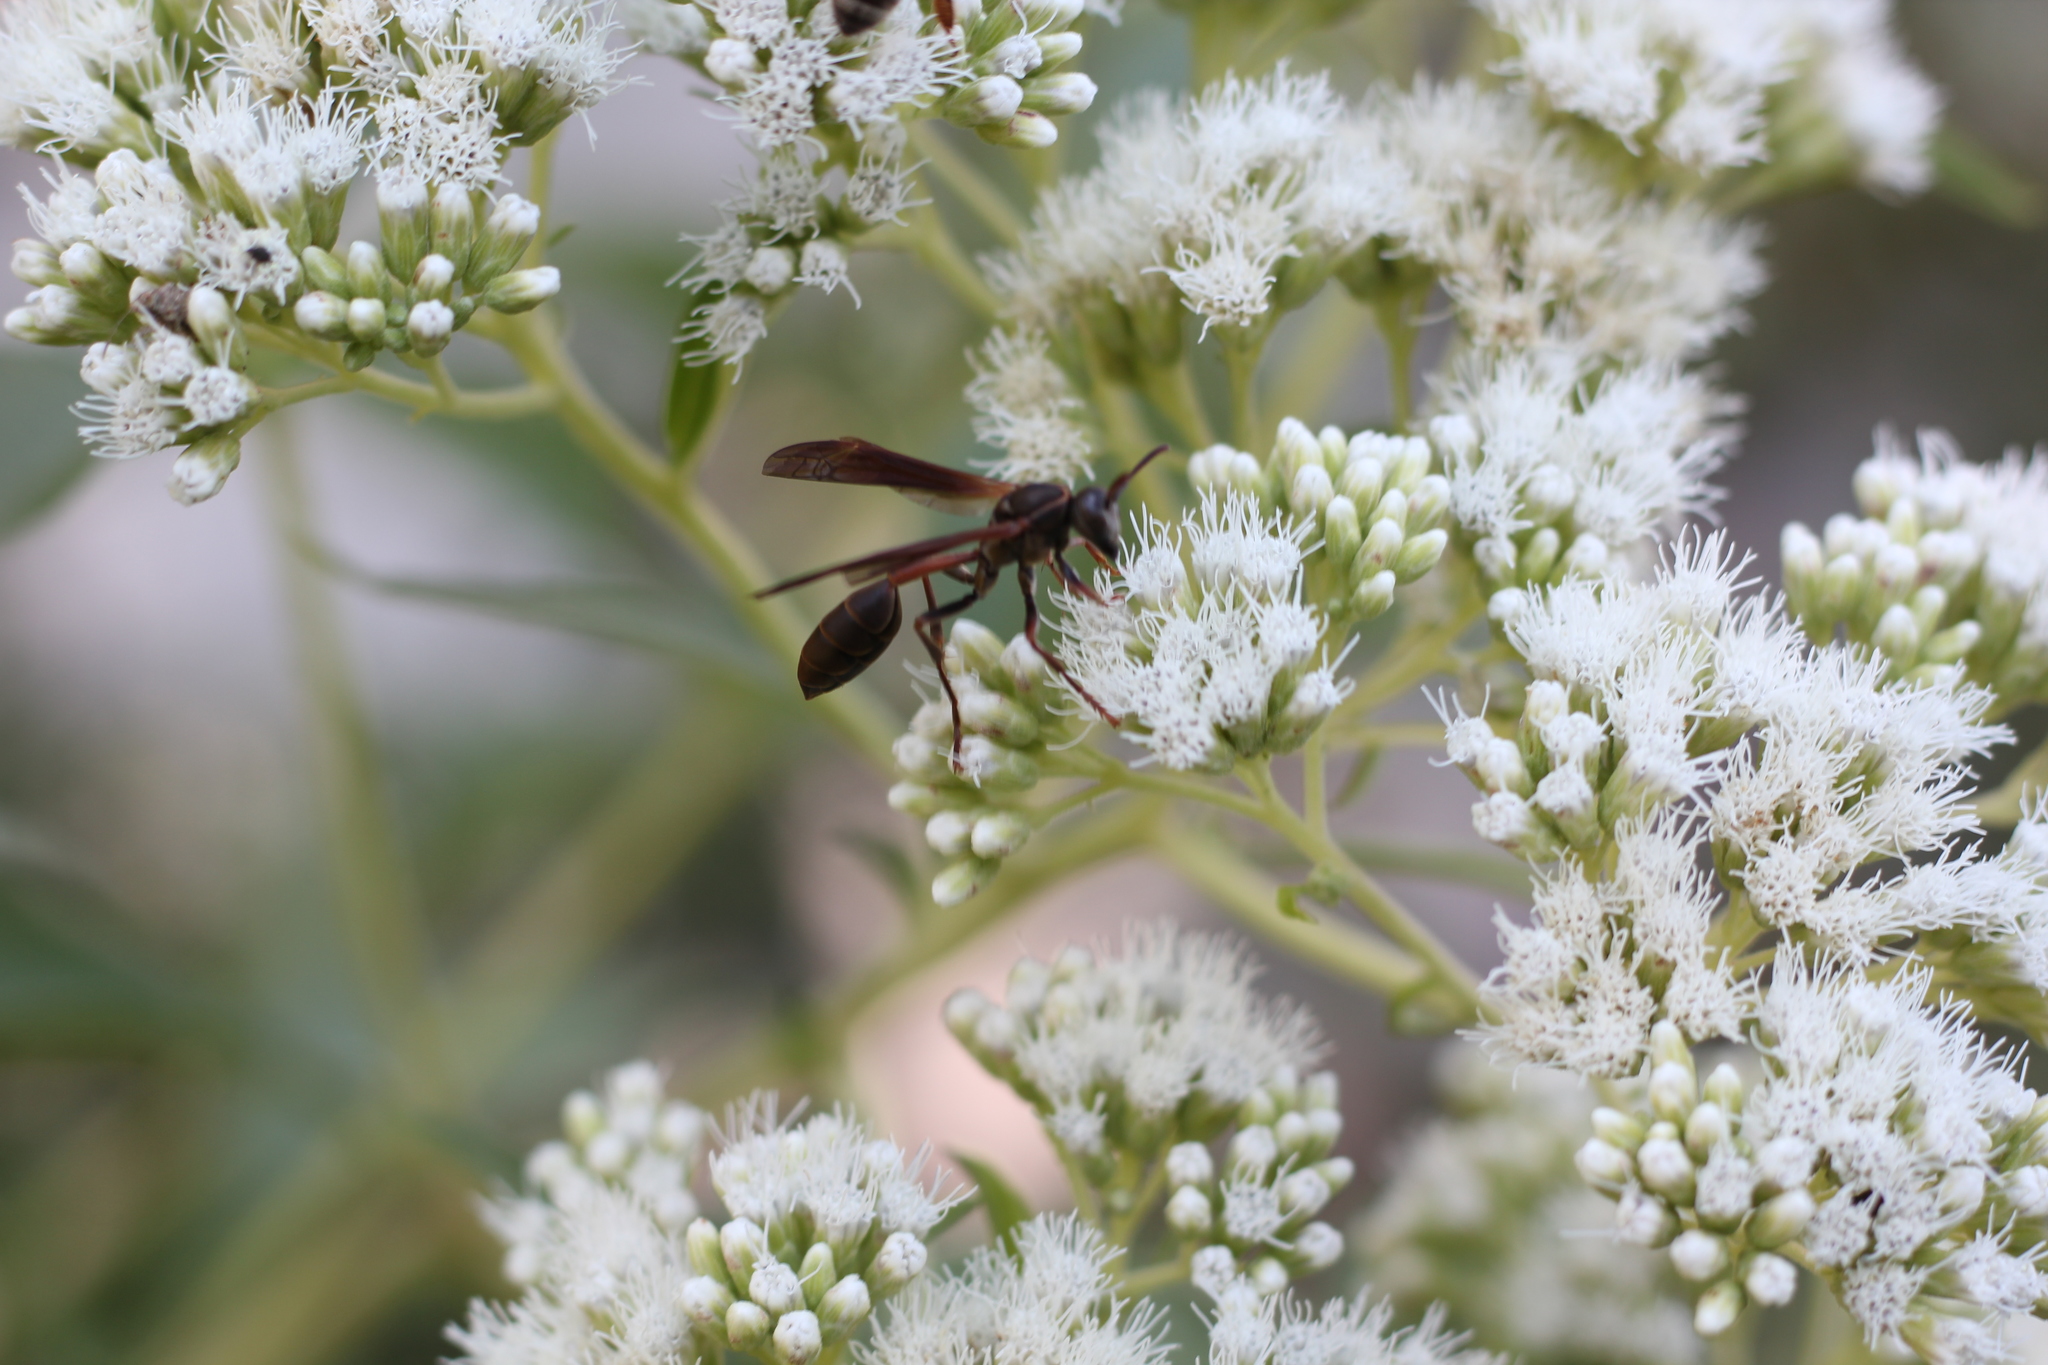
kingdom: Animalia
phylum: Arthropoda
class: Insecta
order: Hymenoptera
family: Vespidae
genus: Mischocyttarus
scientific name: Mischocyttarus drewseni
